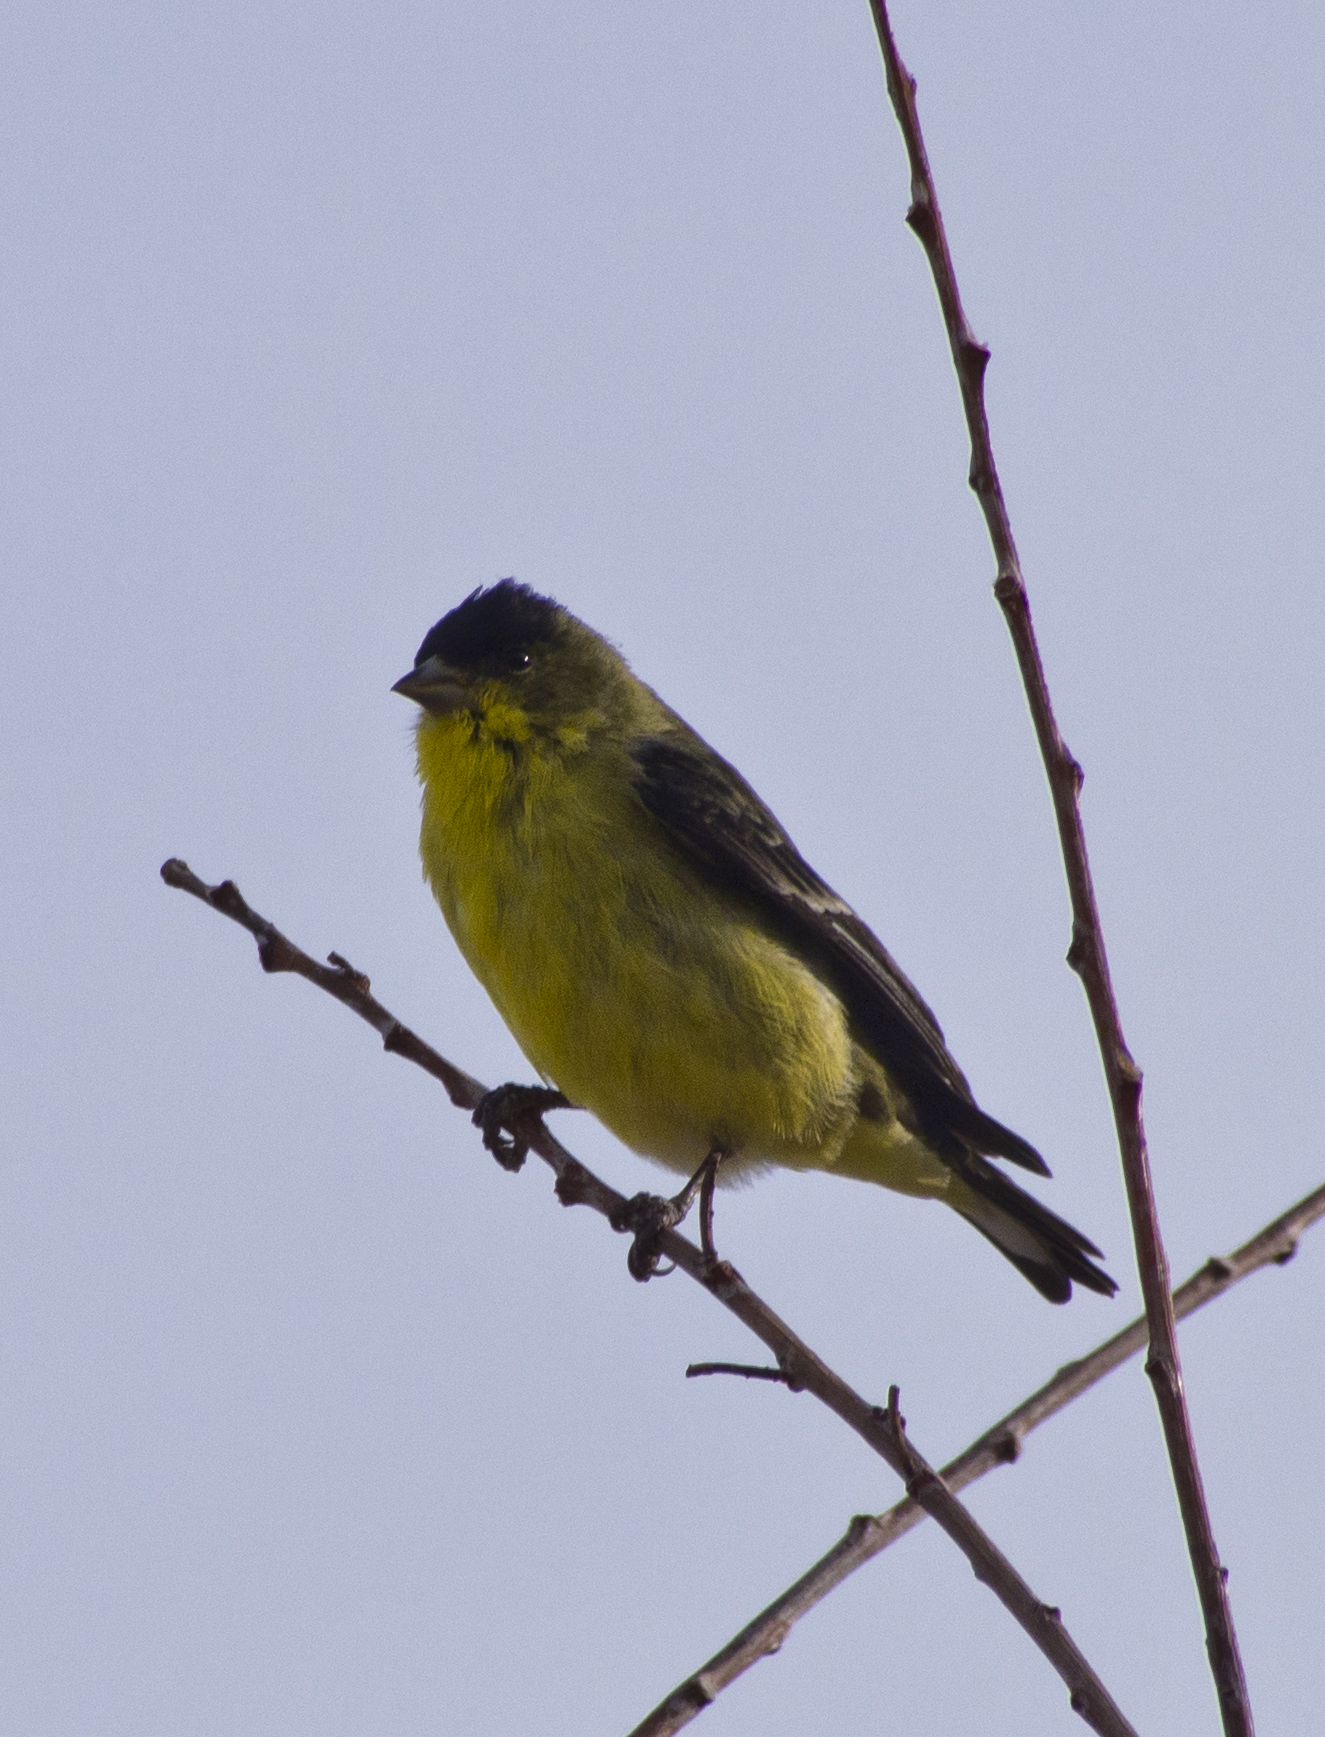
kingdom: Animalia
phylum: Chordata
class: Aves
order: Passeriformes
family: Fringillidae
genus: Spinus
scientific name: Spinus psaltria
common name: Lesser goldfinch
